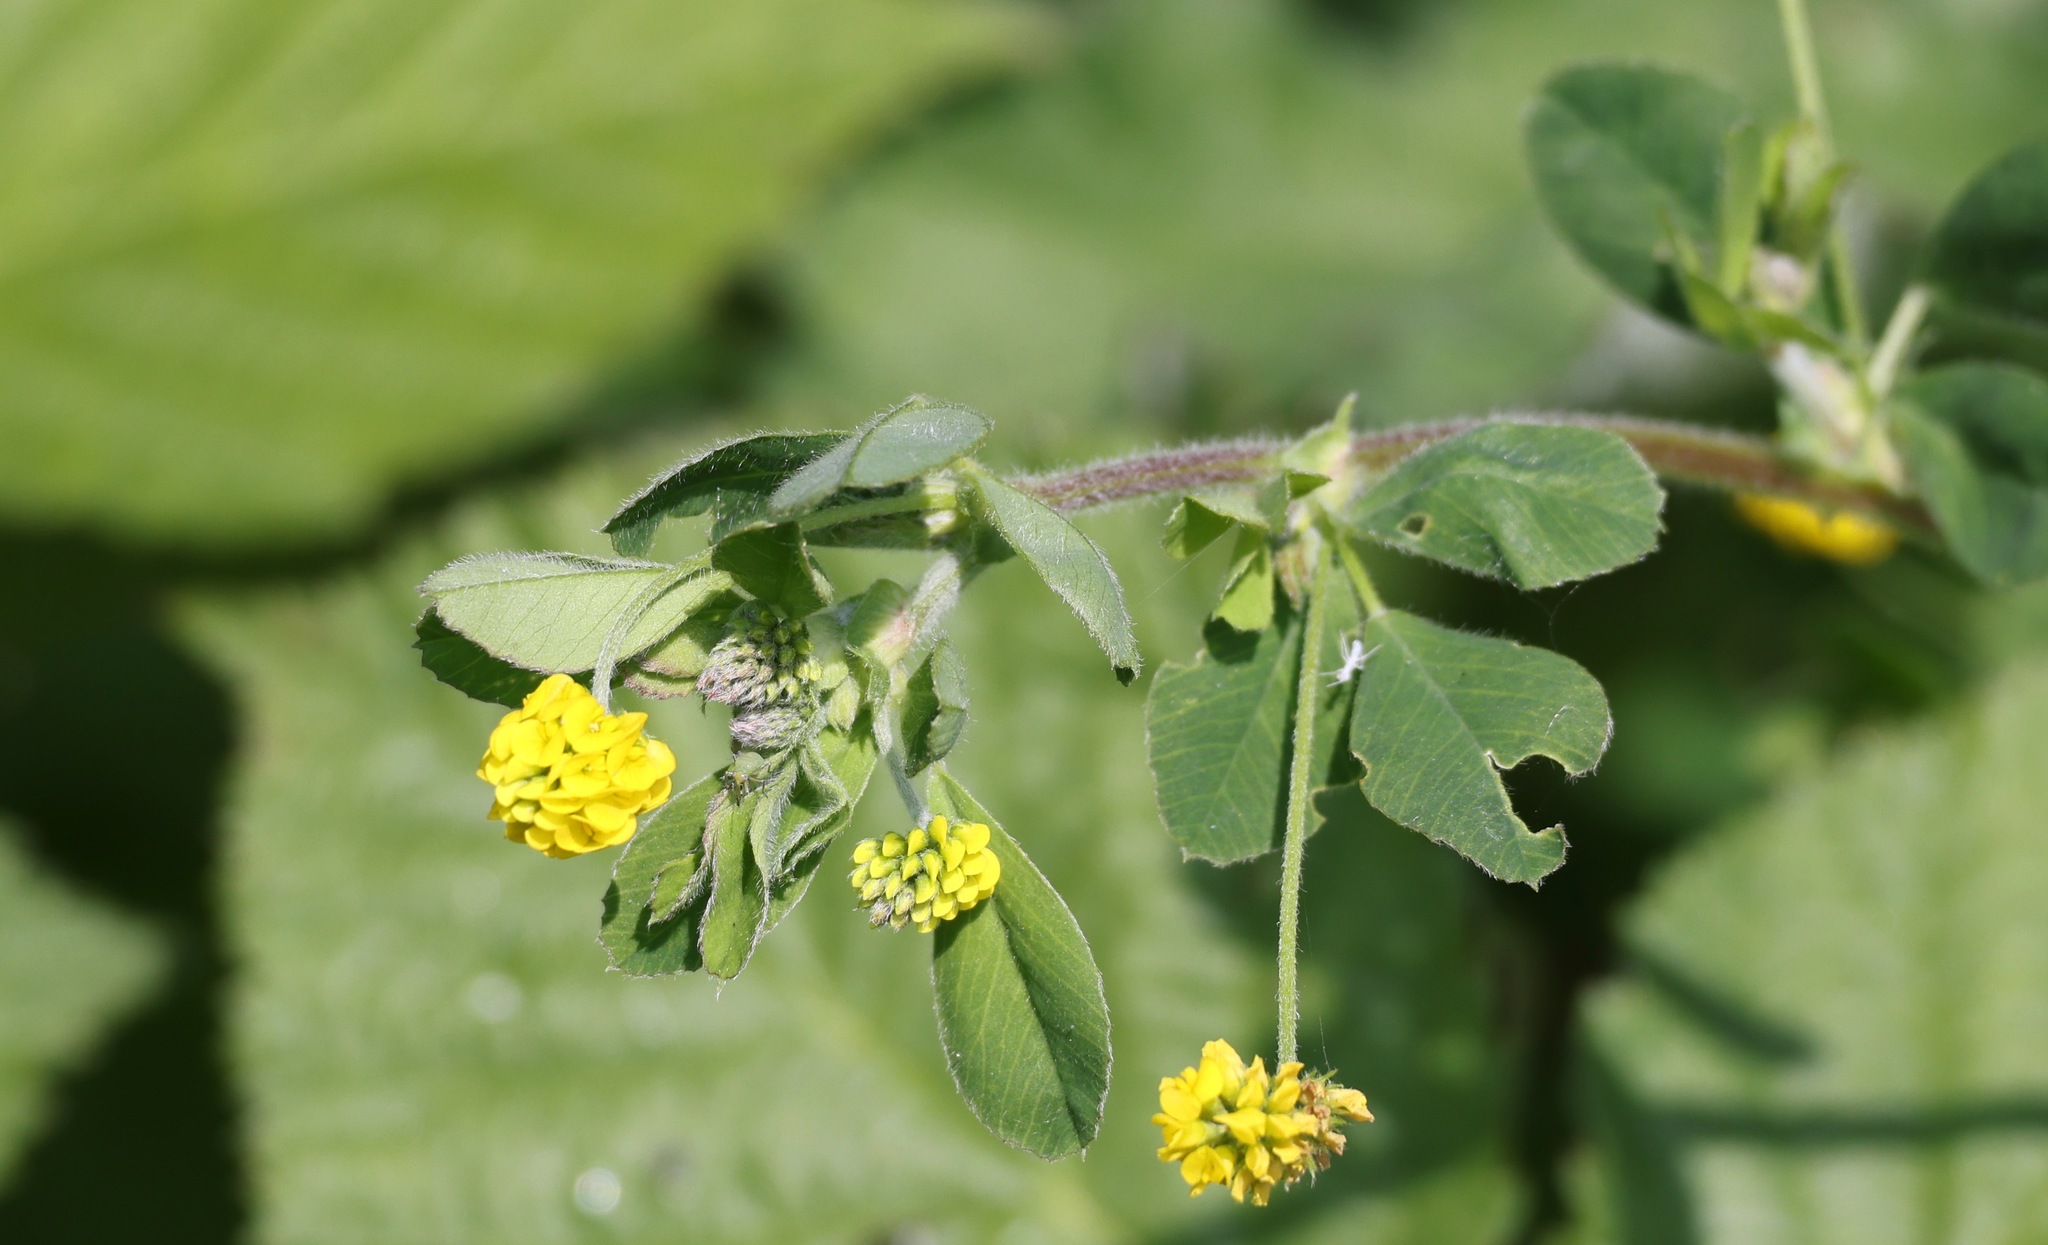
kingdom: Plantae
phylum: Tracheophyta
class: Magnoliopsida
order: Fabales
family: Fabaceae
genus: Medicago
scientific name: Medicago lupulina
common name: Black medick
